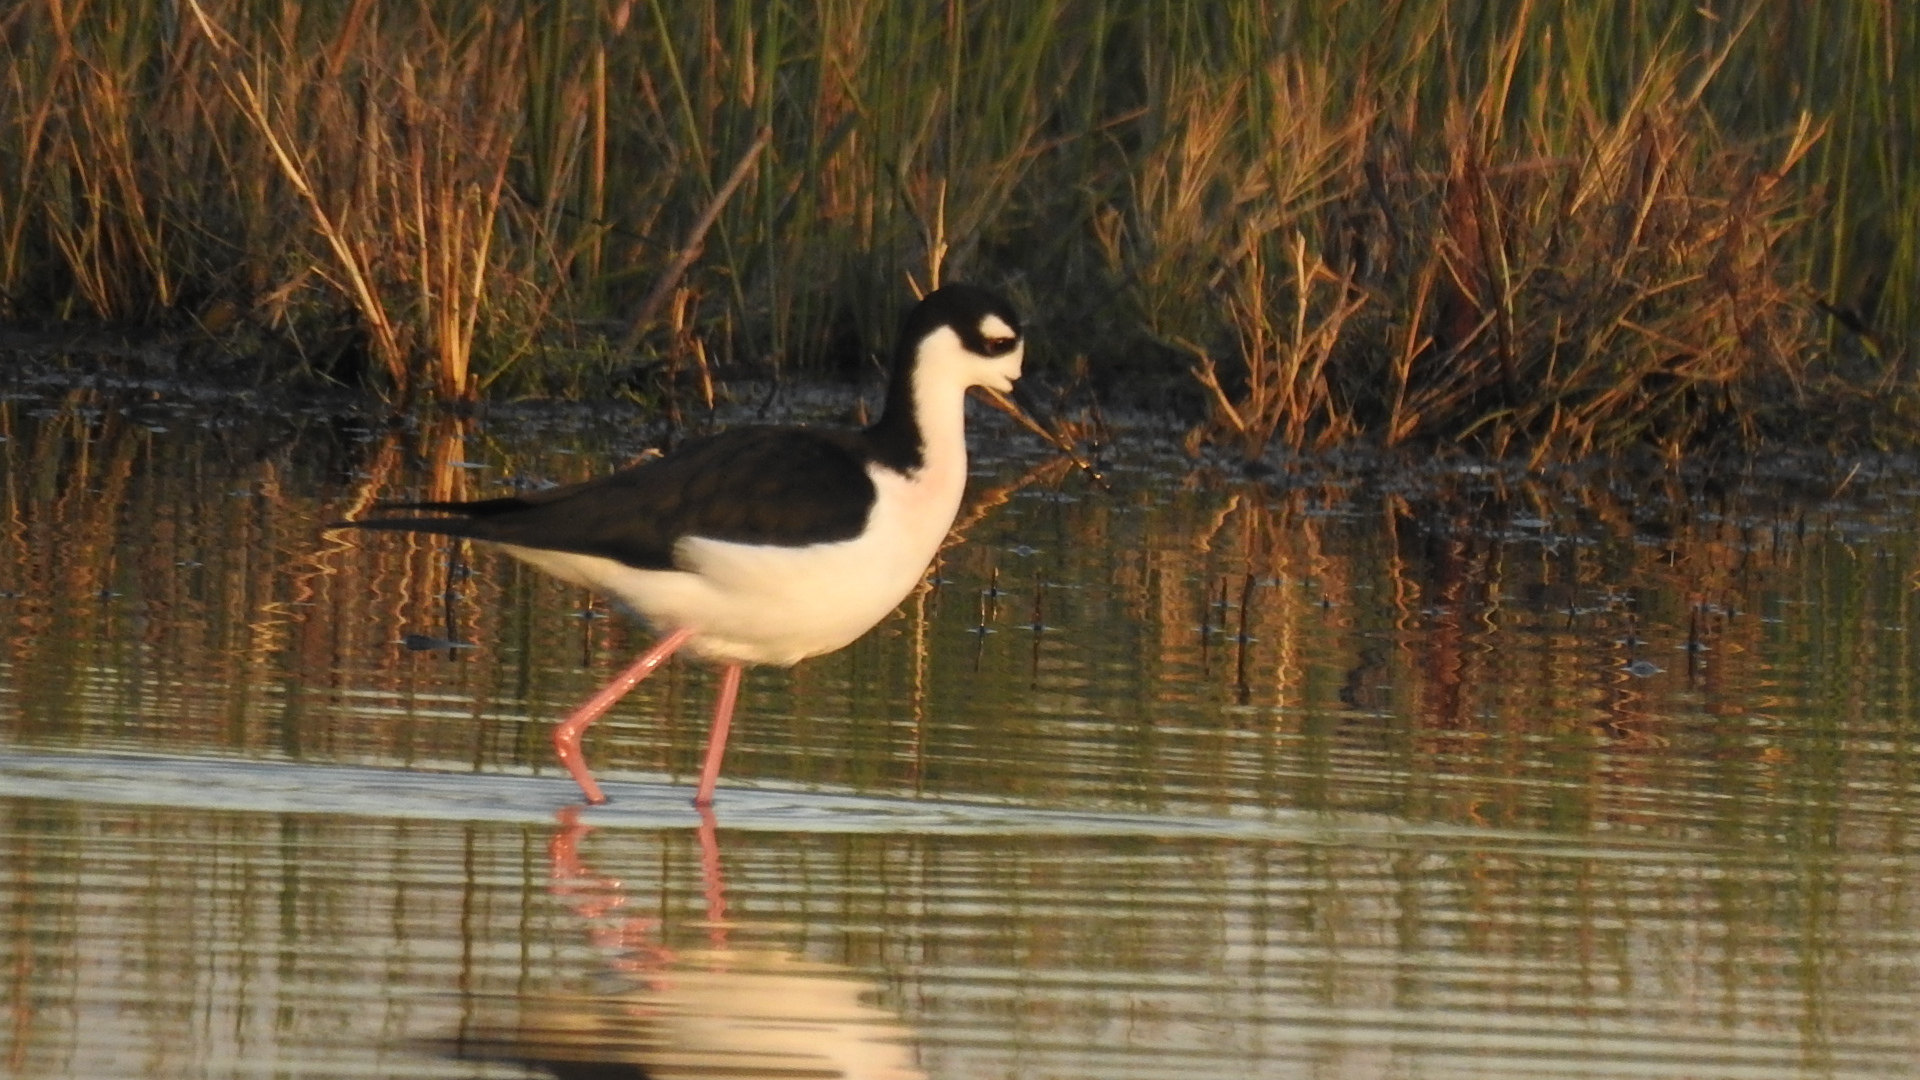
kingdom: Animalia
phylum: Chordata
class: Aves
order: Charadriiformes
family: Recurvirostridae
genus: Himantopus
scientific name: Himantopus mexicanus
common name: Black-necked stilt
